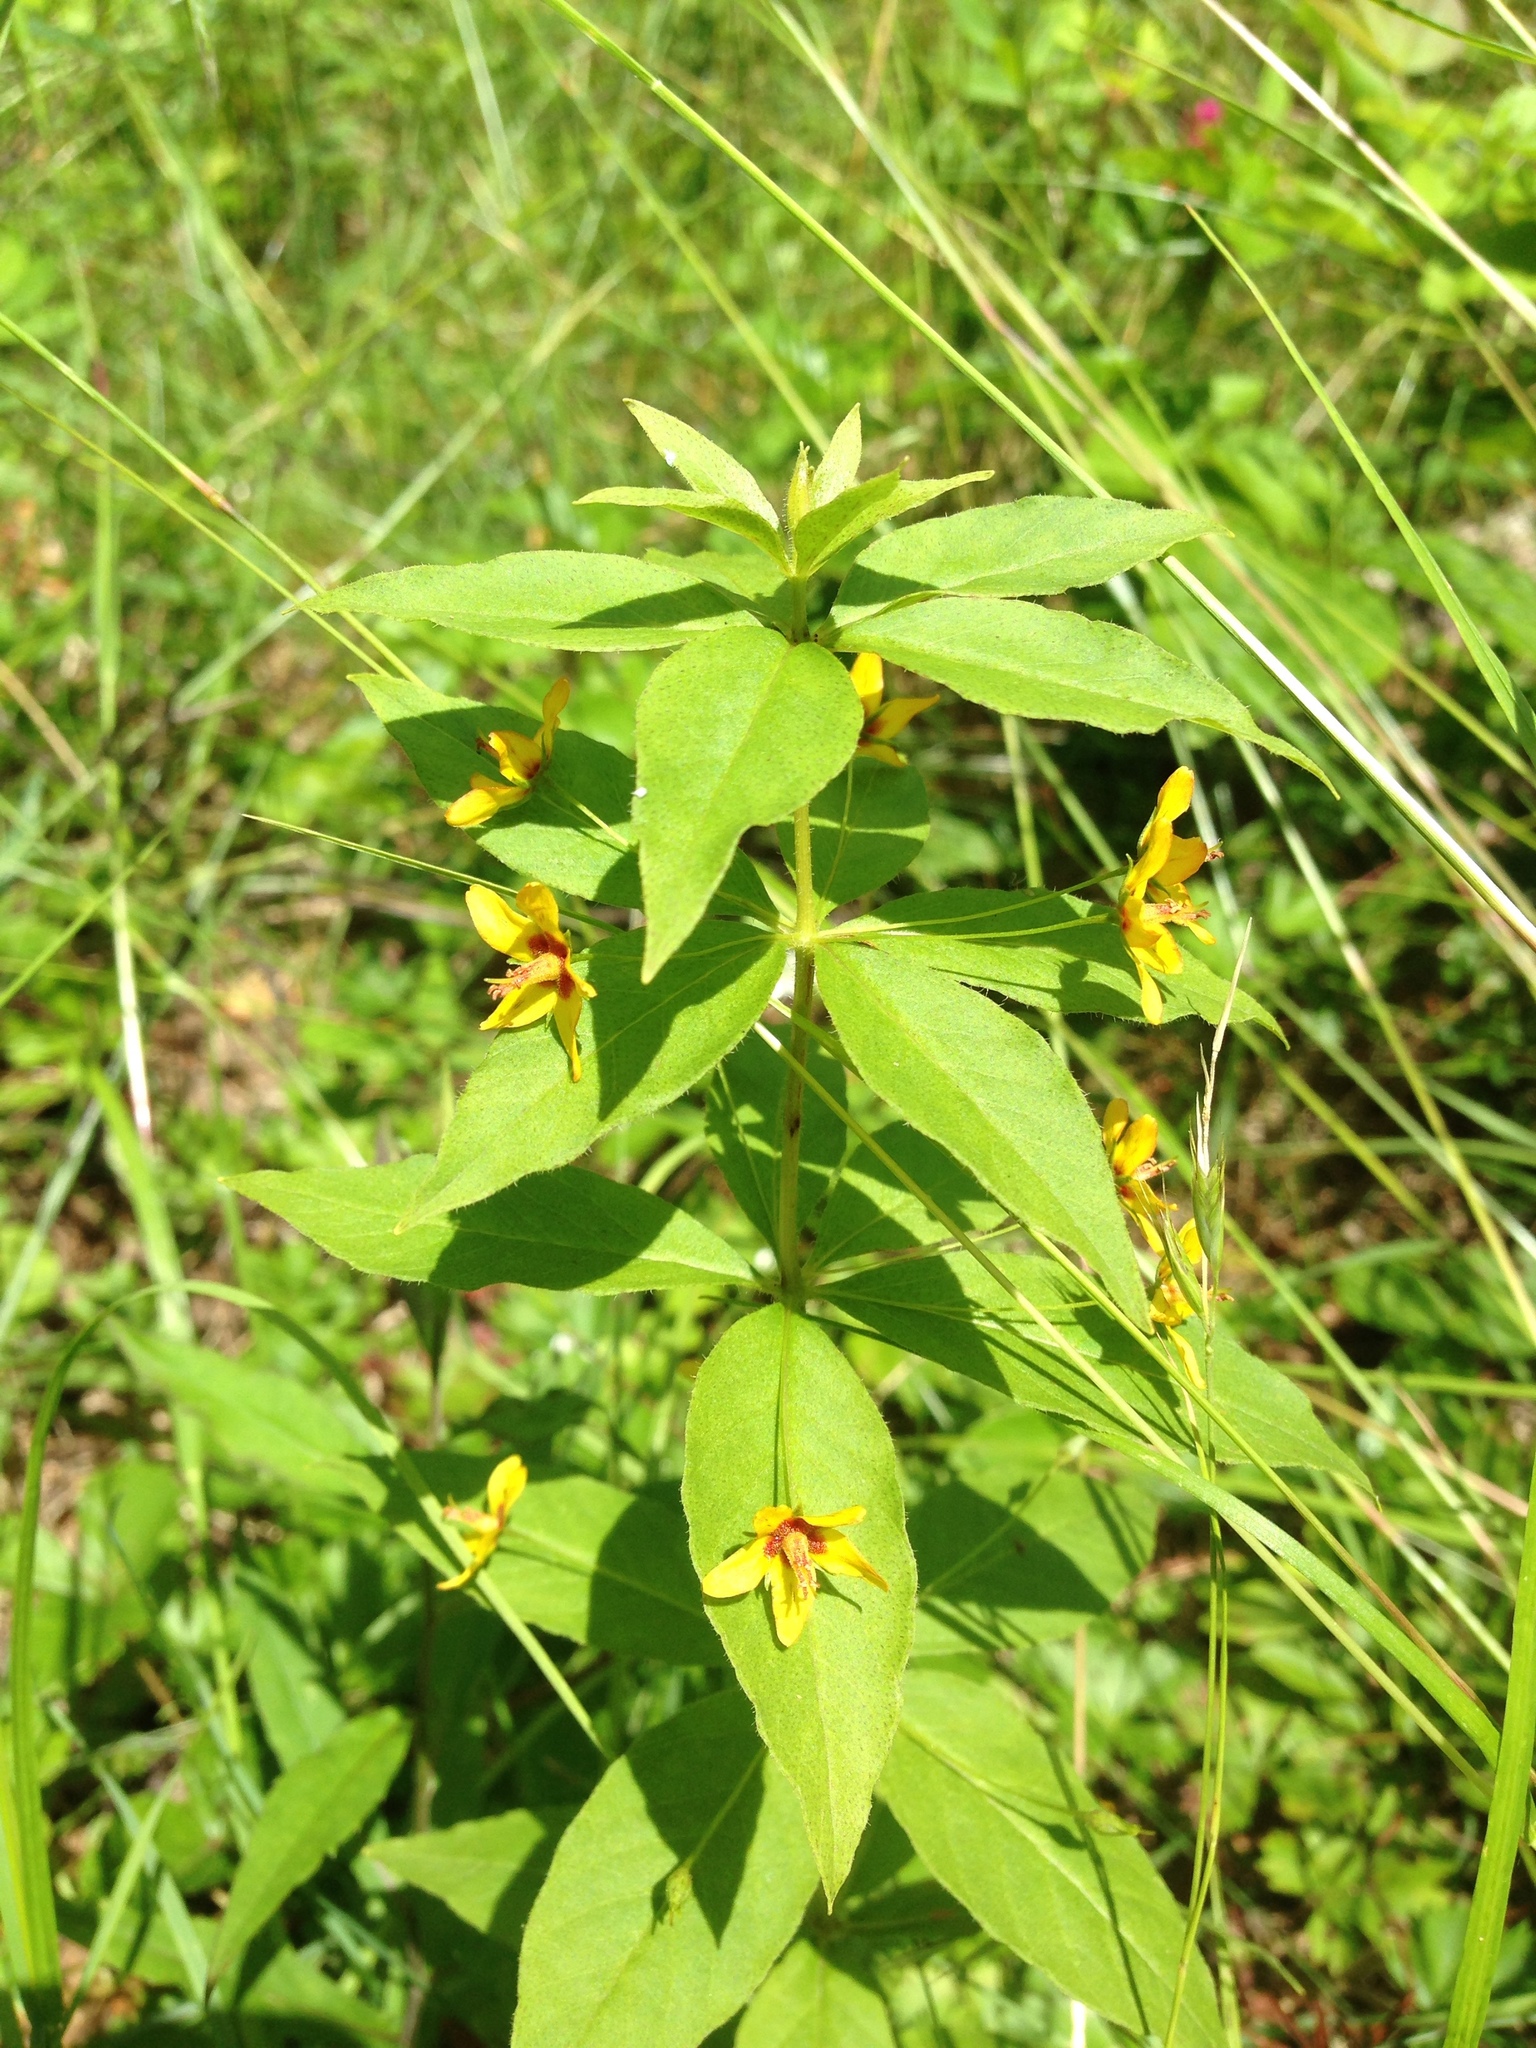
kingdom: Plantae
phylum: Tracheophyta
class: Magnoliopsida
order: Ericales
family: Primulaceae
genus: Lysimachia
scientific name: Lysimachia quadrifolia
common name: Whorled loosestrife
